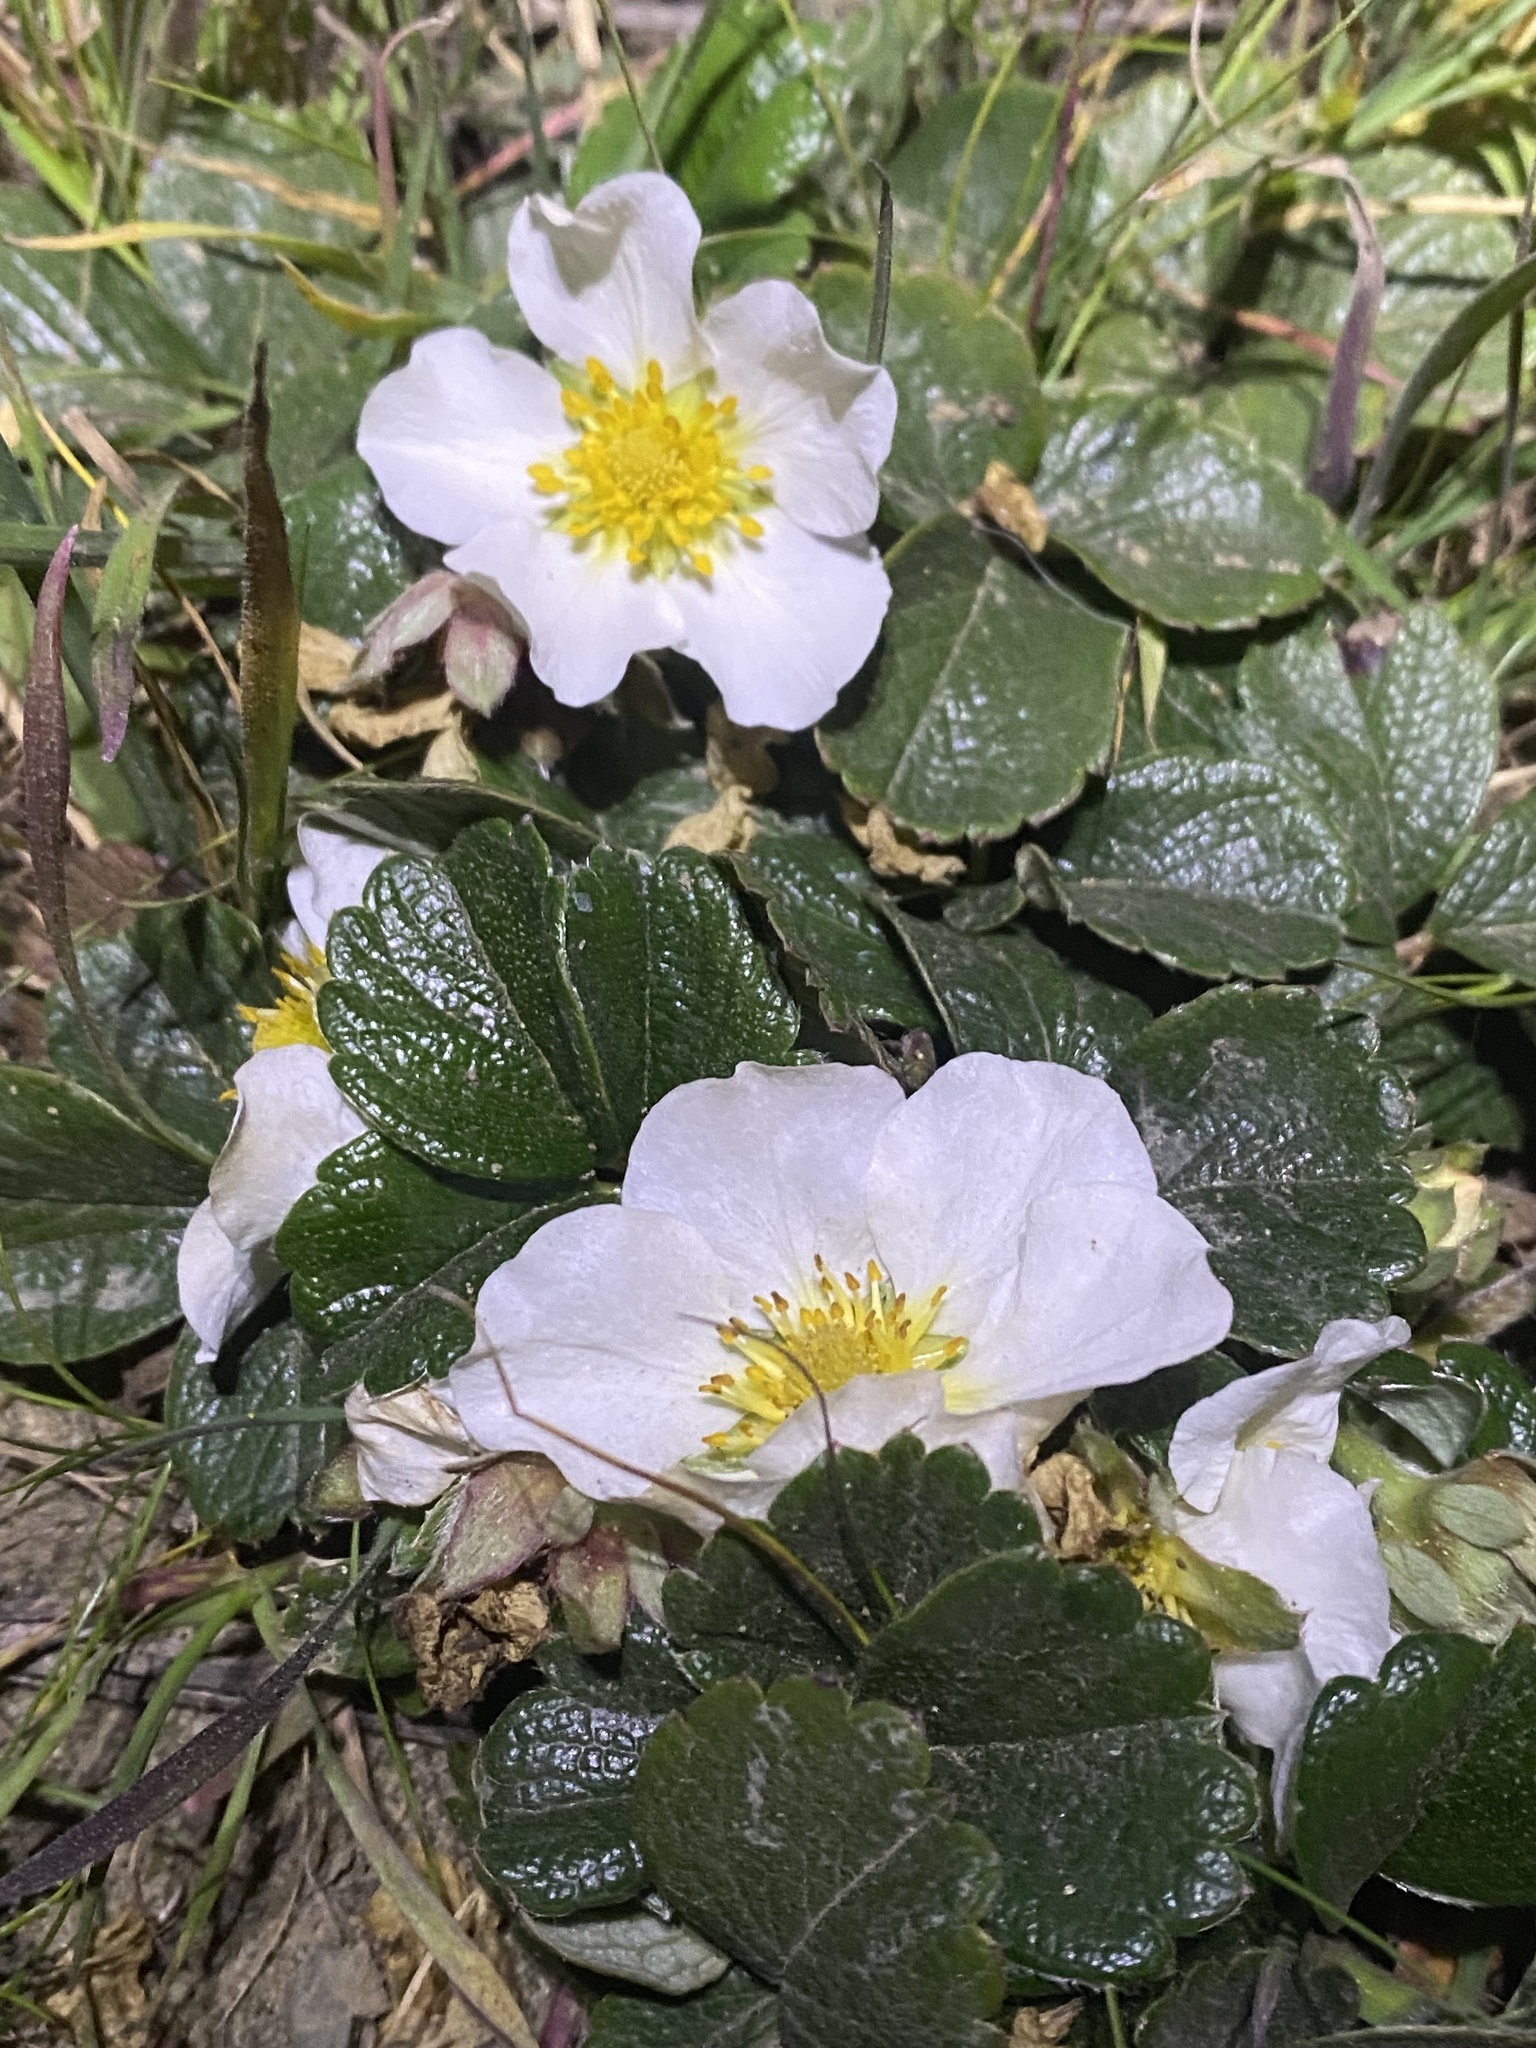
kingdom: Plantae
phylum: Tracheophyta
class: Magnoliopsida
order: Rosales
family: Rosaceae
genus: Fragaria
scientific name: Fragaria chiloensis
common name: Beach strawberry
